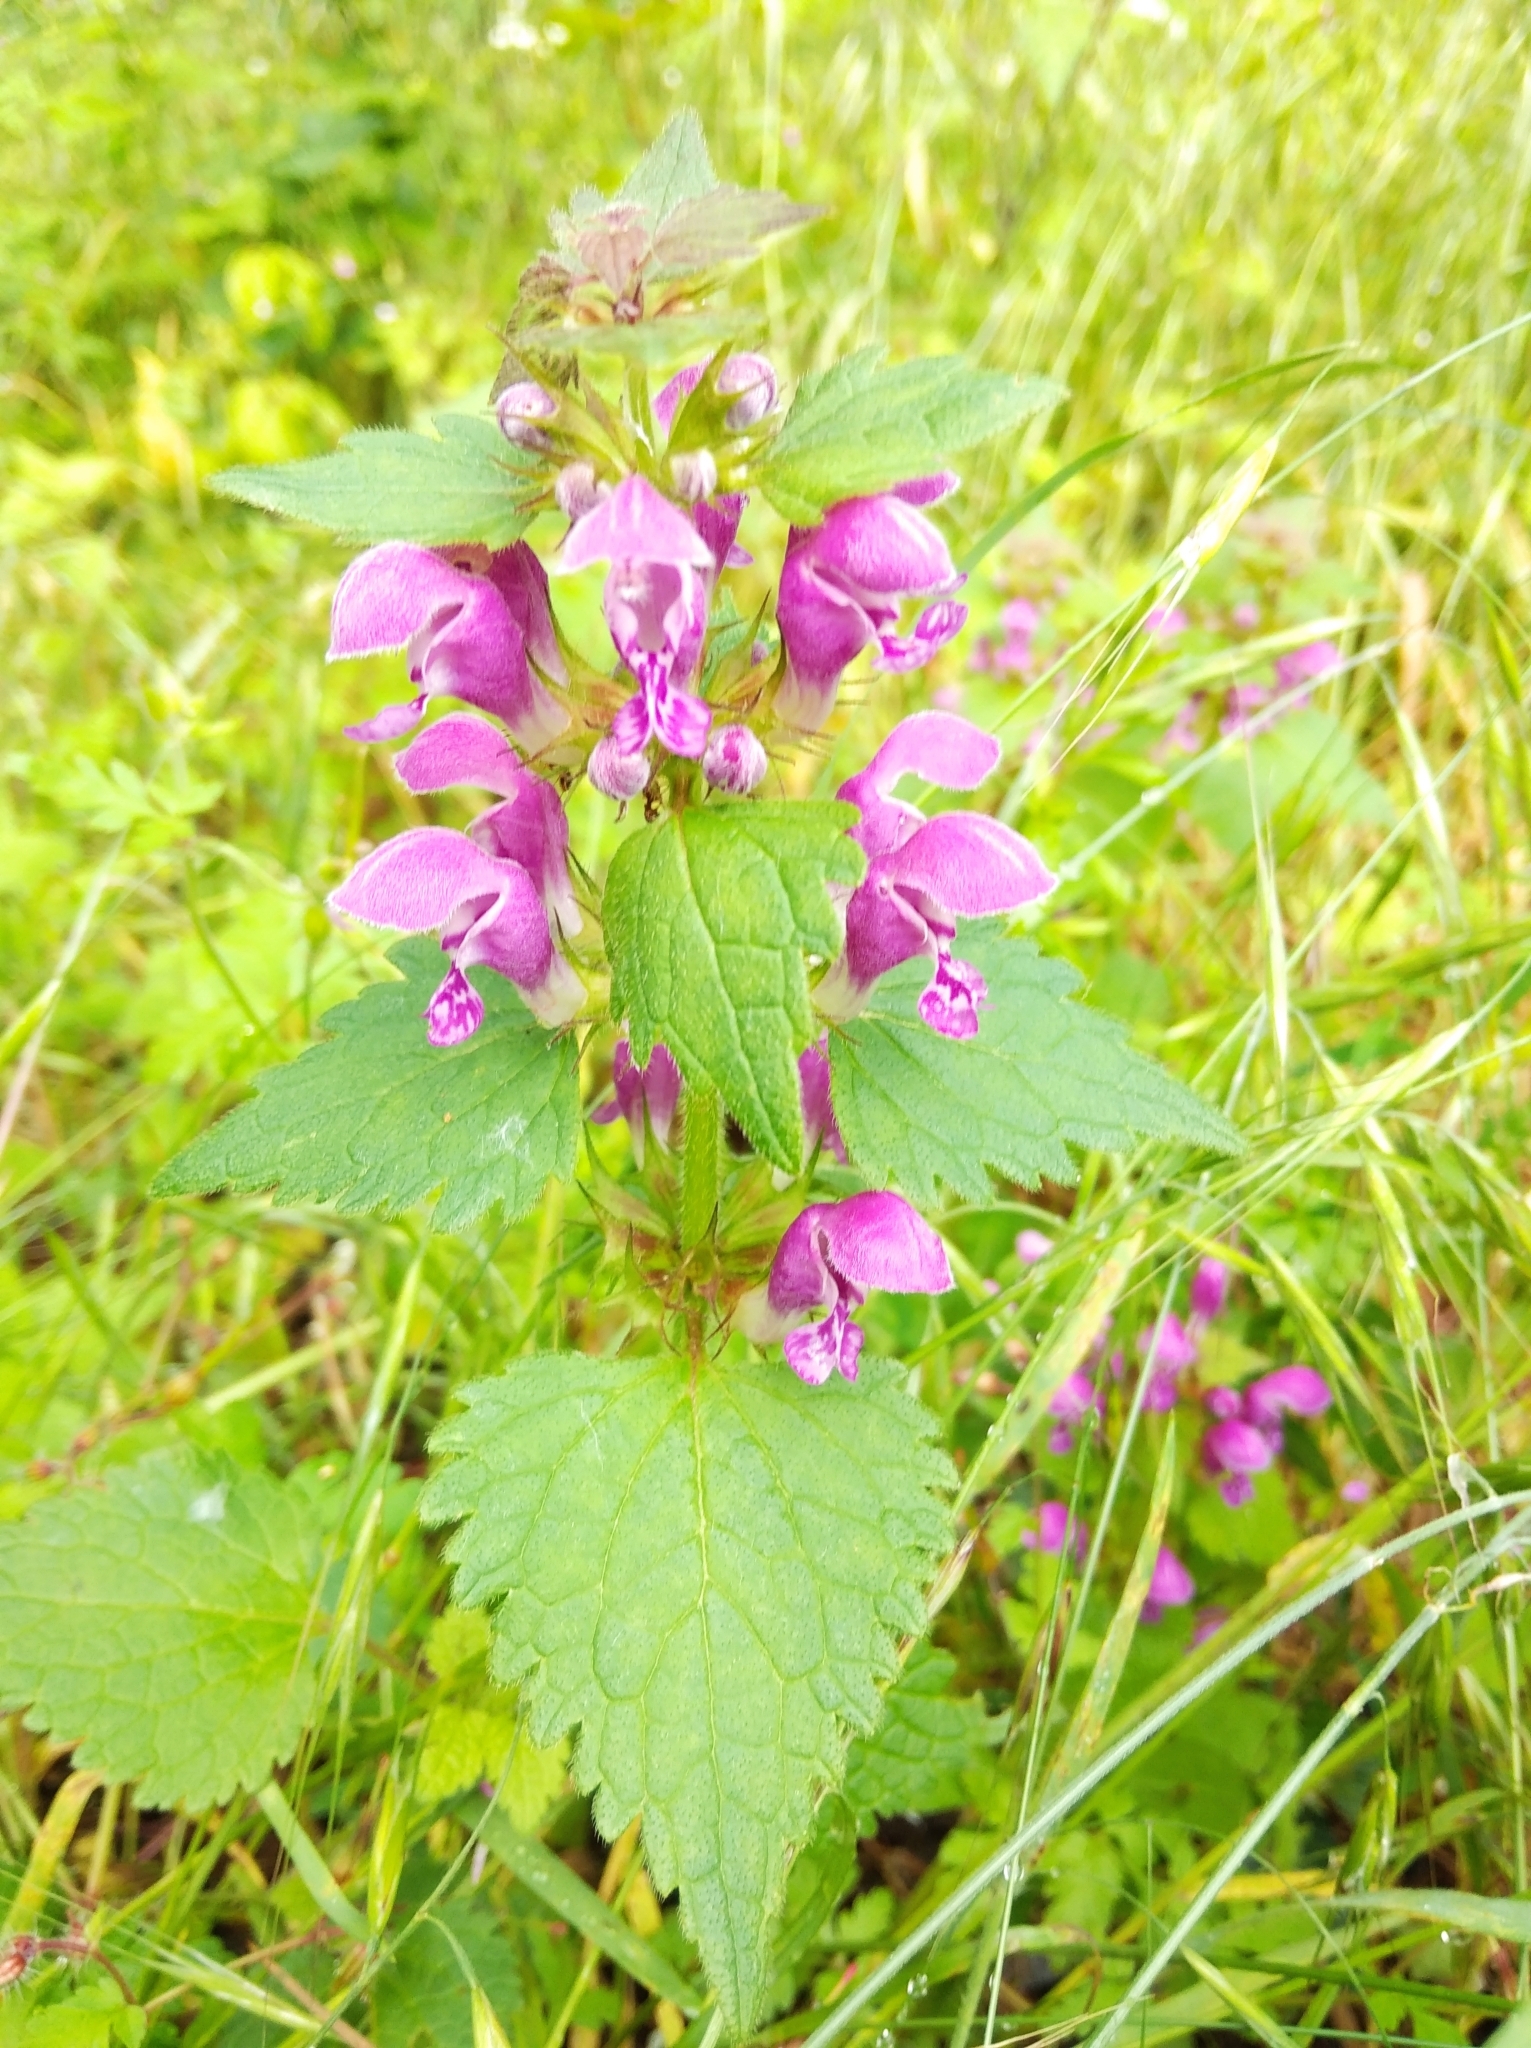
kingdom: Plantae
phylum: Tracheophyta
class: Magnoliopsida
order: Lamiales
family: Lamiaceae
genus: Lamium
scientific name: Lamium maculatum
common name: Spotted dead-nettle
